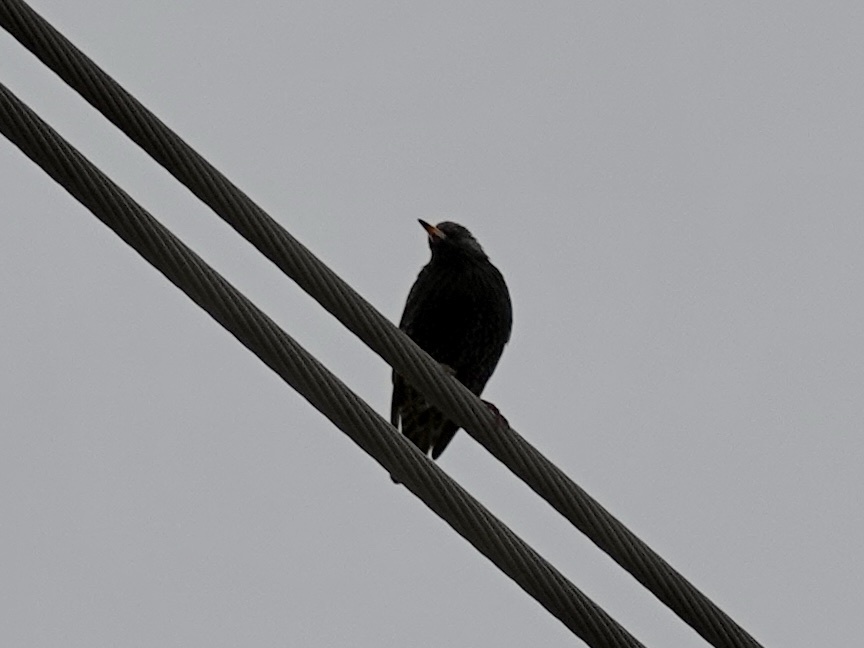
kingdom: Animalia
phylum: Chordata
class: Aves
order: Passeriformes
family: Sturnidae
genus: Sturnus
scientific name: Sturnus vulgaris
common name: Common starling
